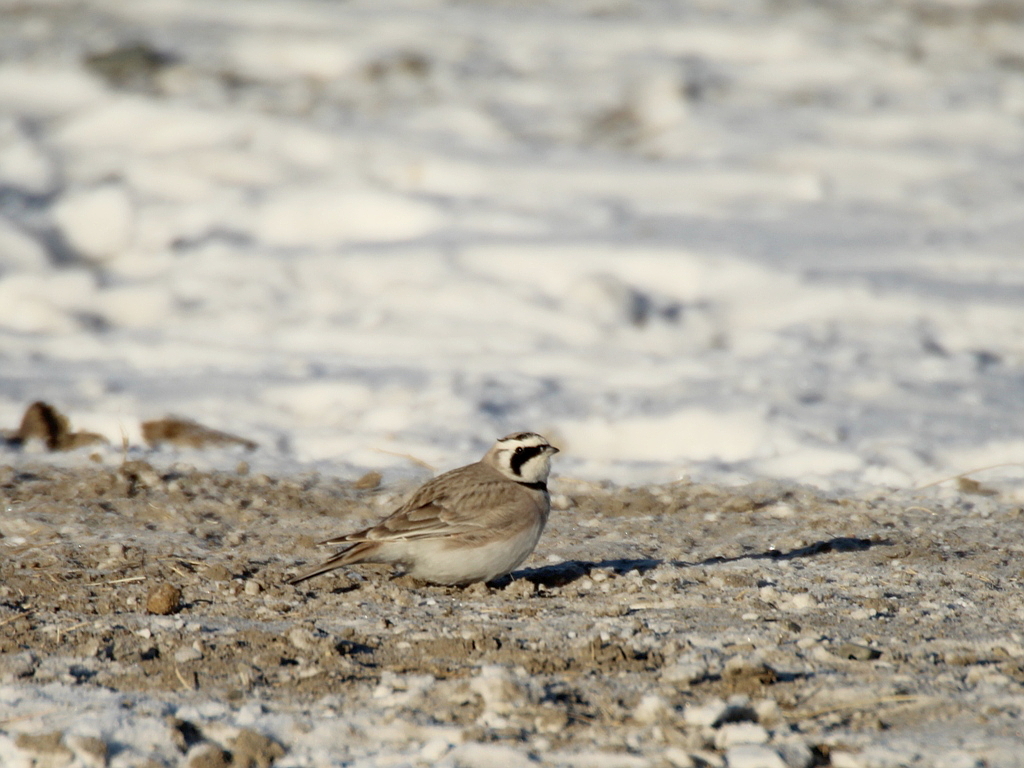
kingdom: Animalia
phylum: Chordata
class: Aves
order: Passeriformes
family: Alaudidae
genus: Eremophila
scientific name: Eremophila alpestris
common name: Horned lark
